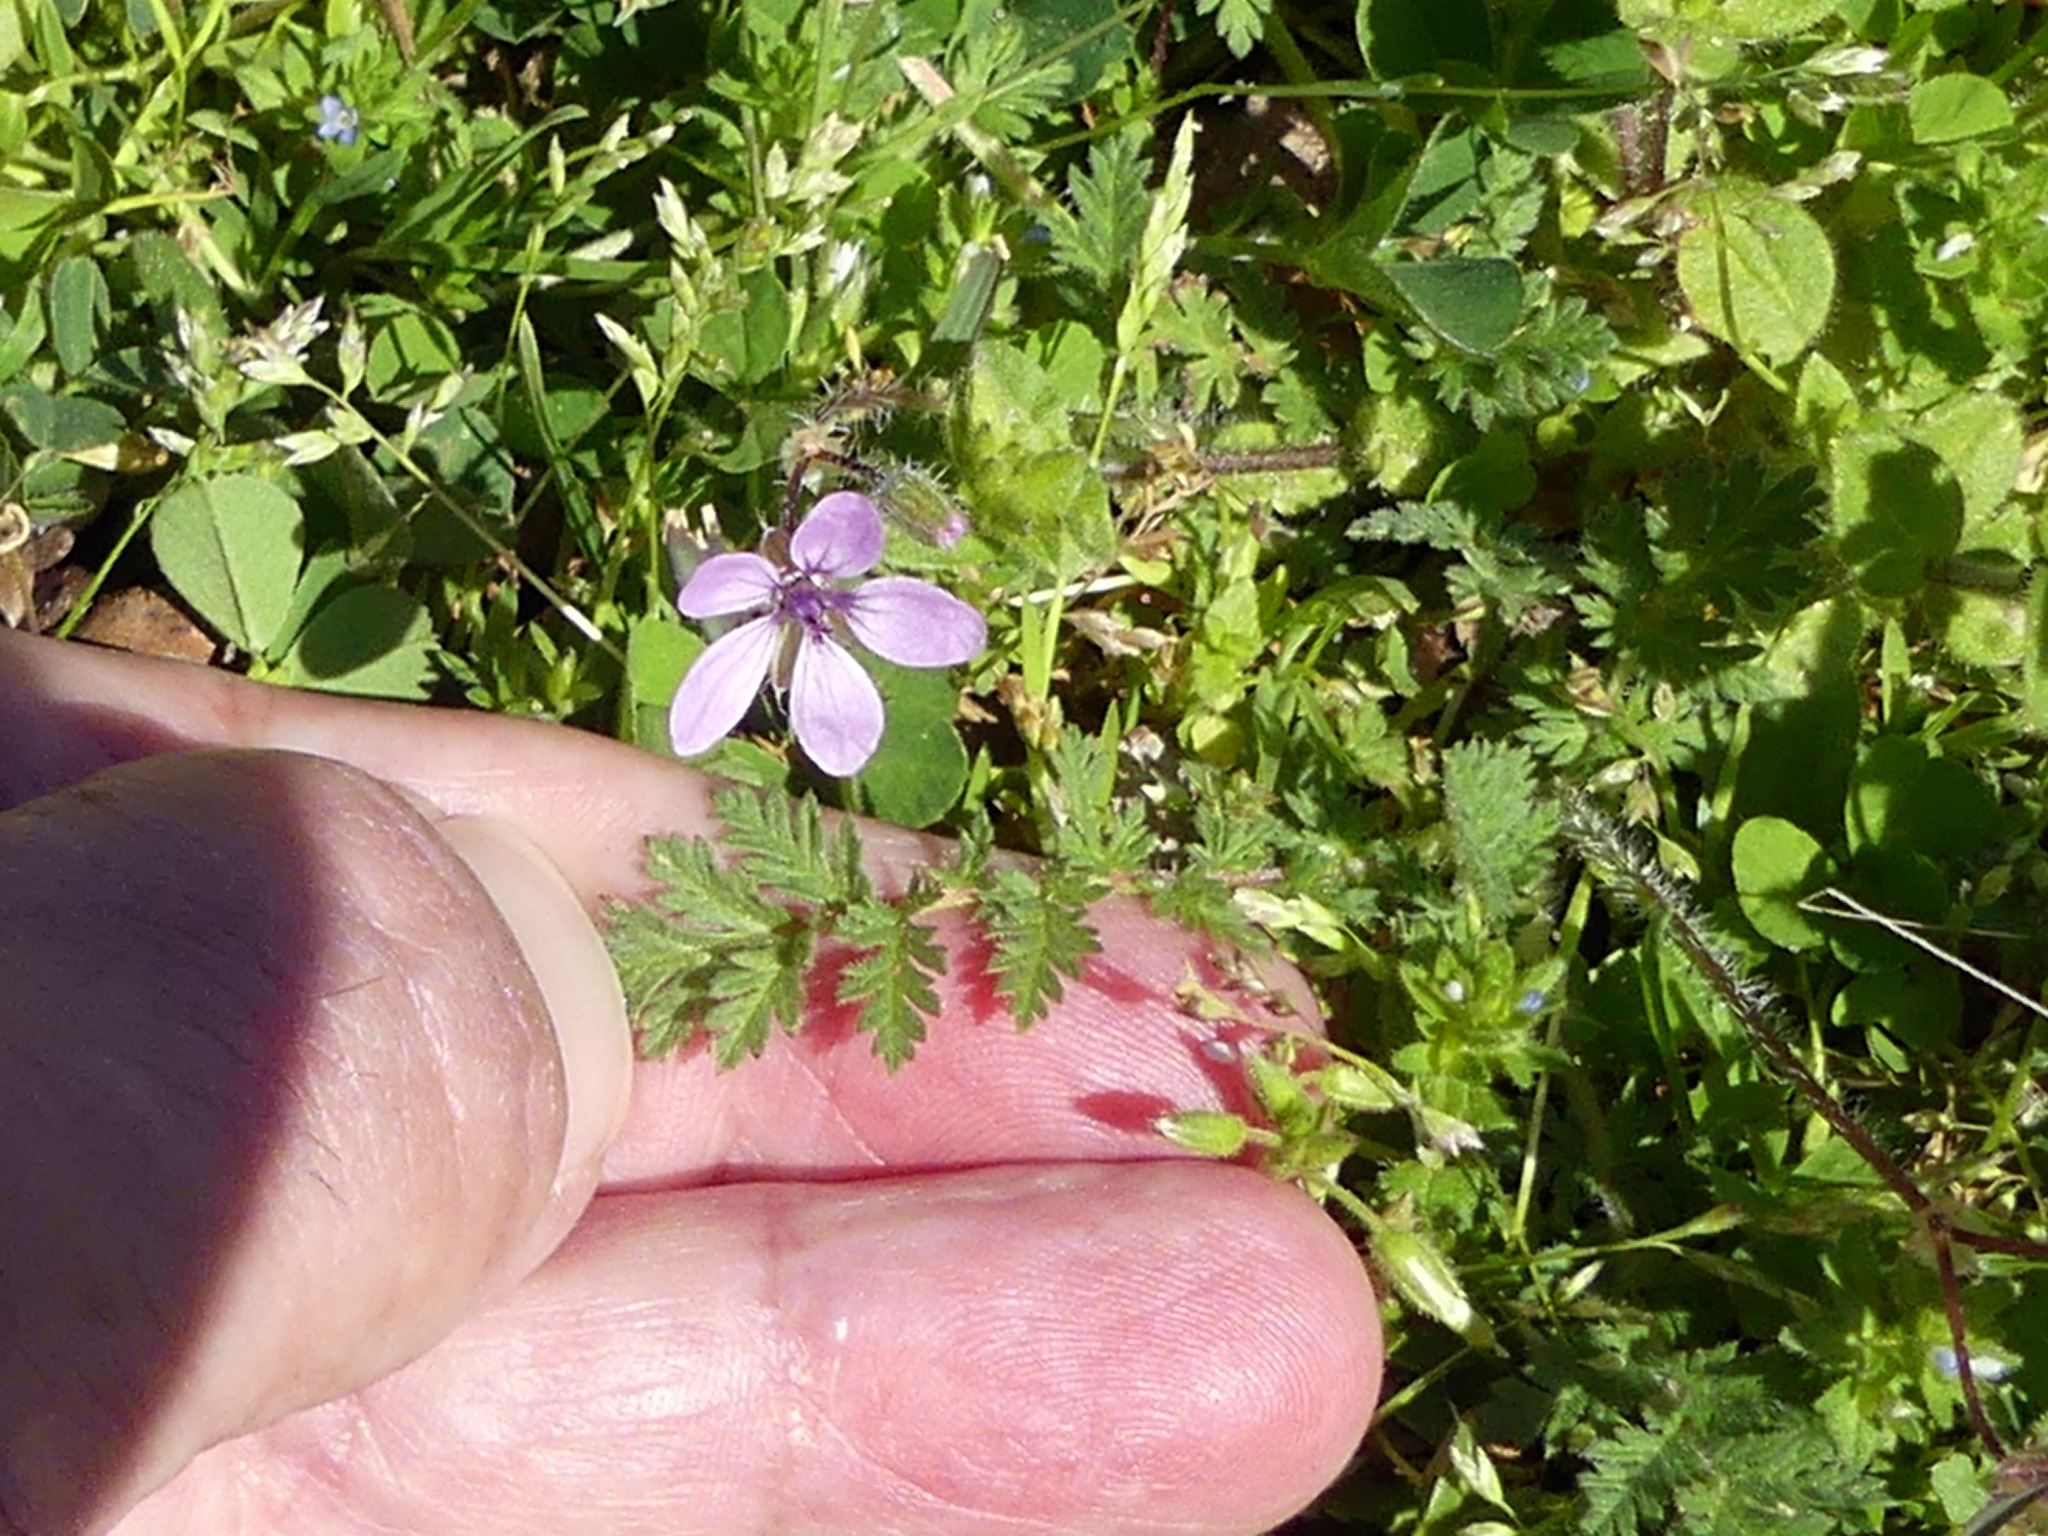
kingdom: Plantae
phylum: Tracheophyta
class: Magnoliopsida
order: Geraniales
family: Geraniaceae
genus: Erodium
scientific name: Erodium cicutarium
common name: Common stork's-bill
